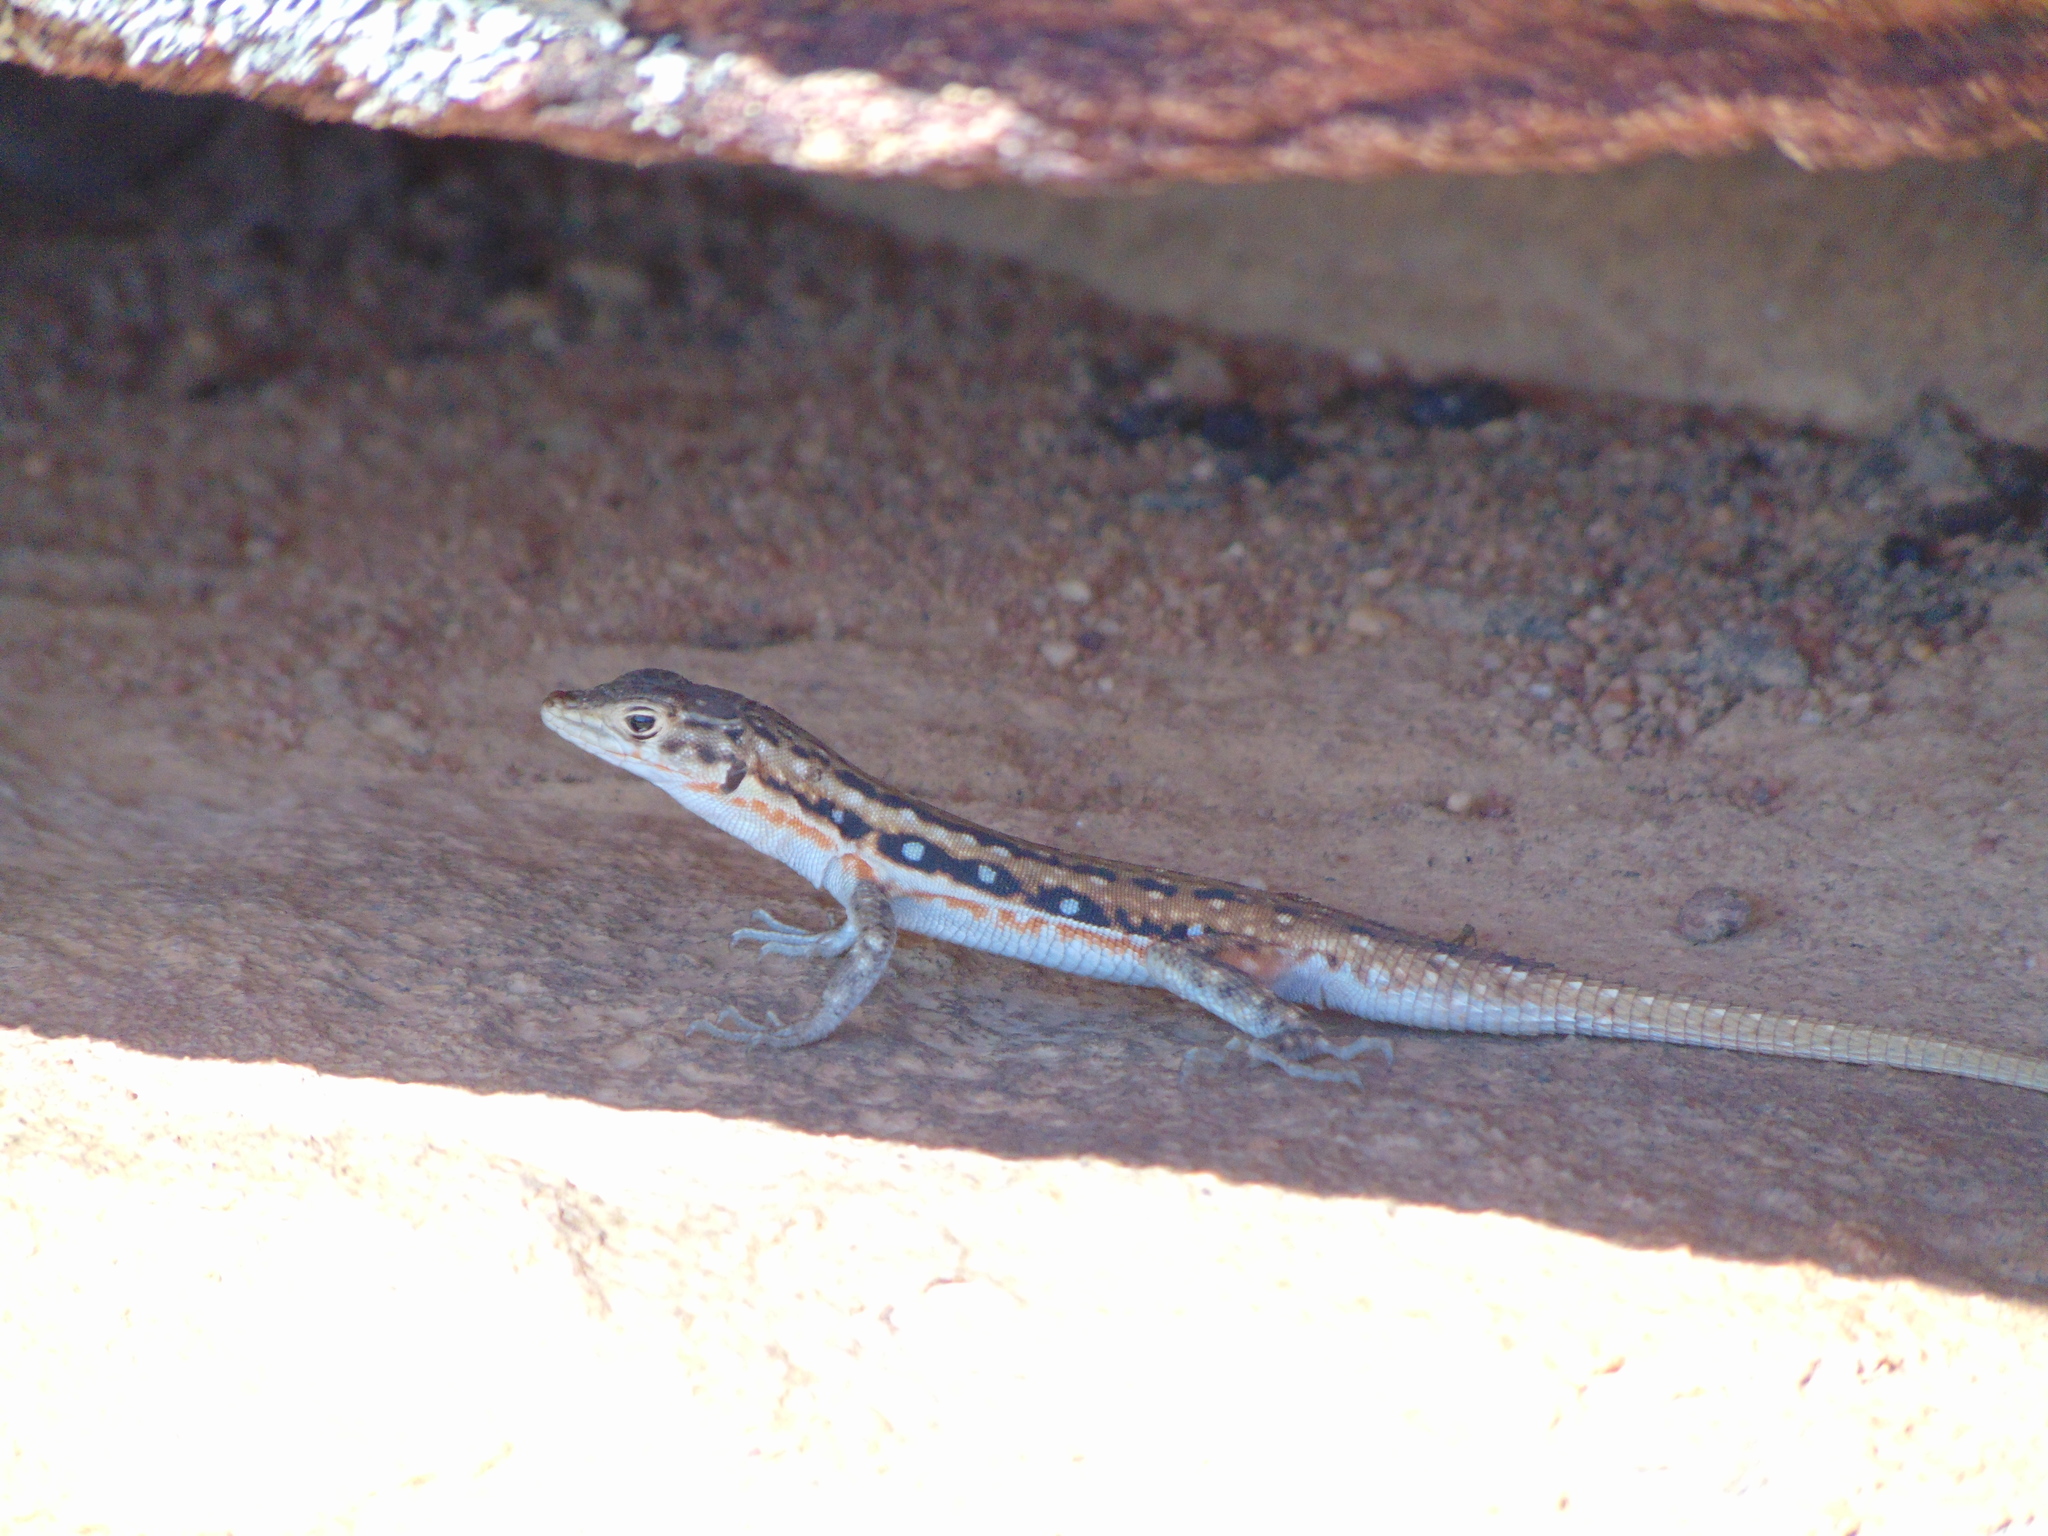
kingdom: Animalia
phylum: Chordata
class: Squamata
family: Lacertidae
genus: Pedioplanis
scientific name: Pedioplanis lineoocellata
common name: Spotted sand lizard
